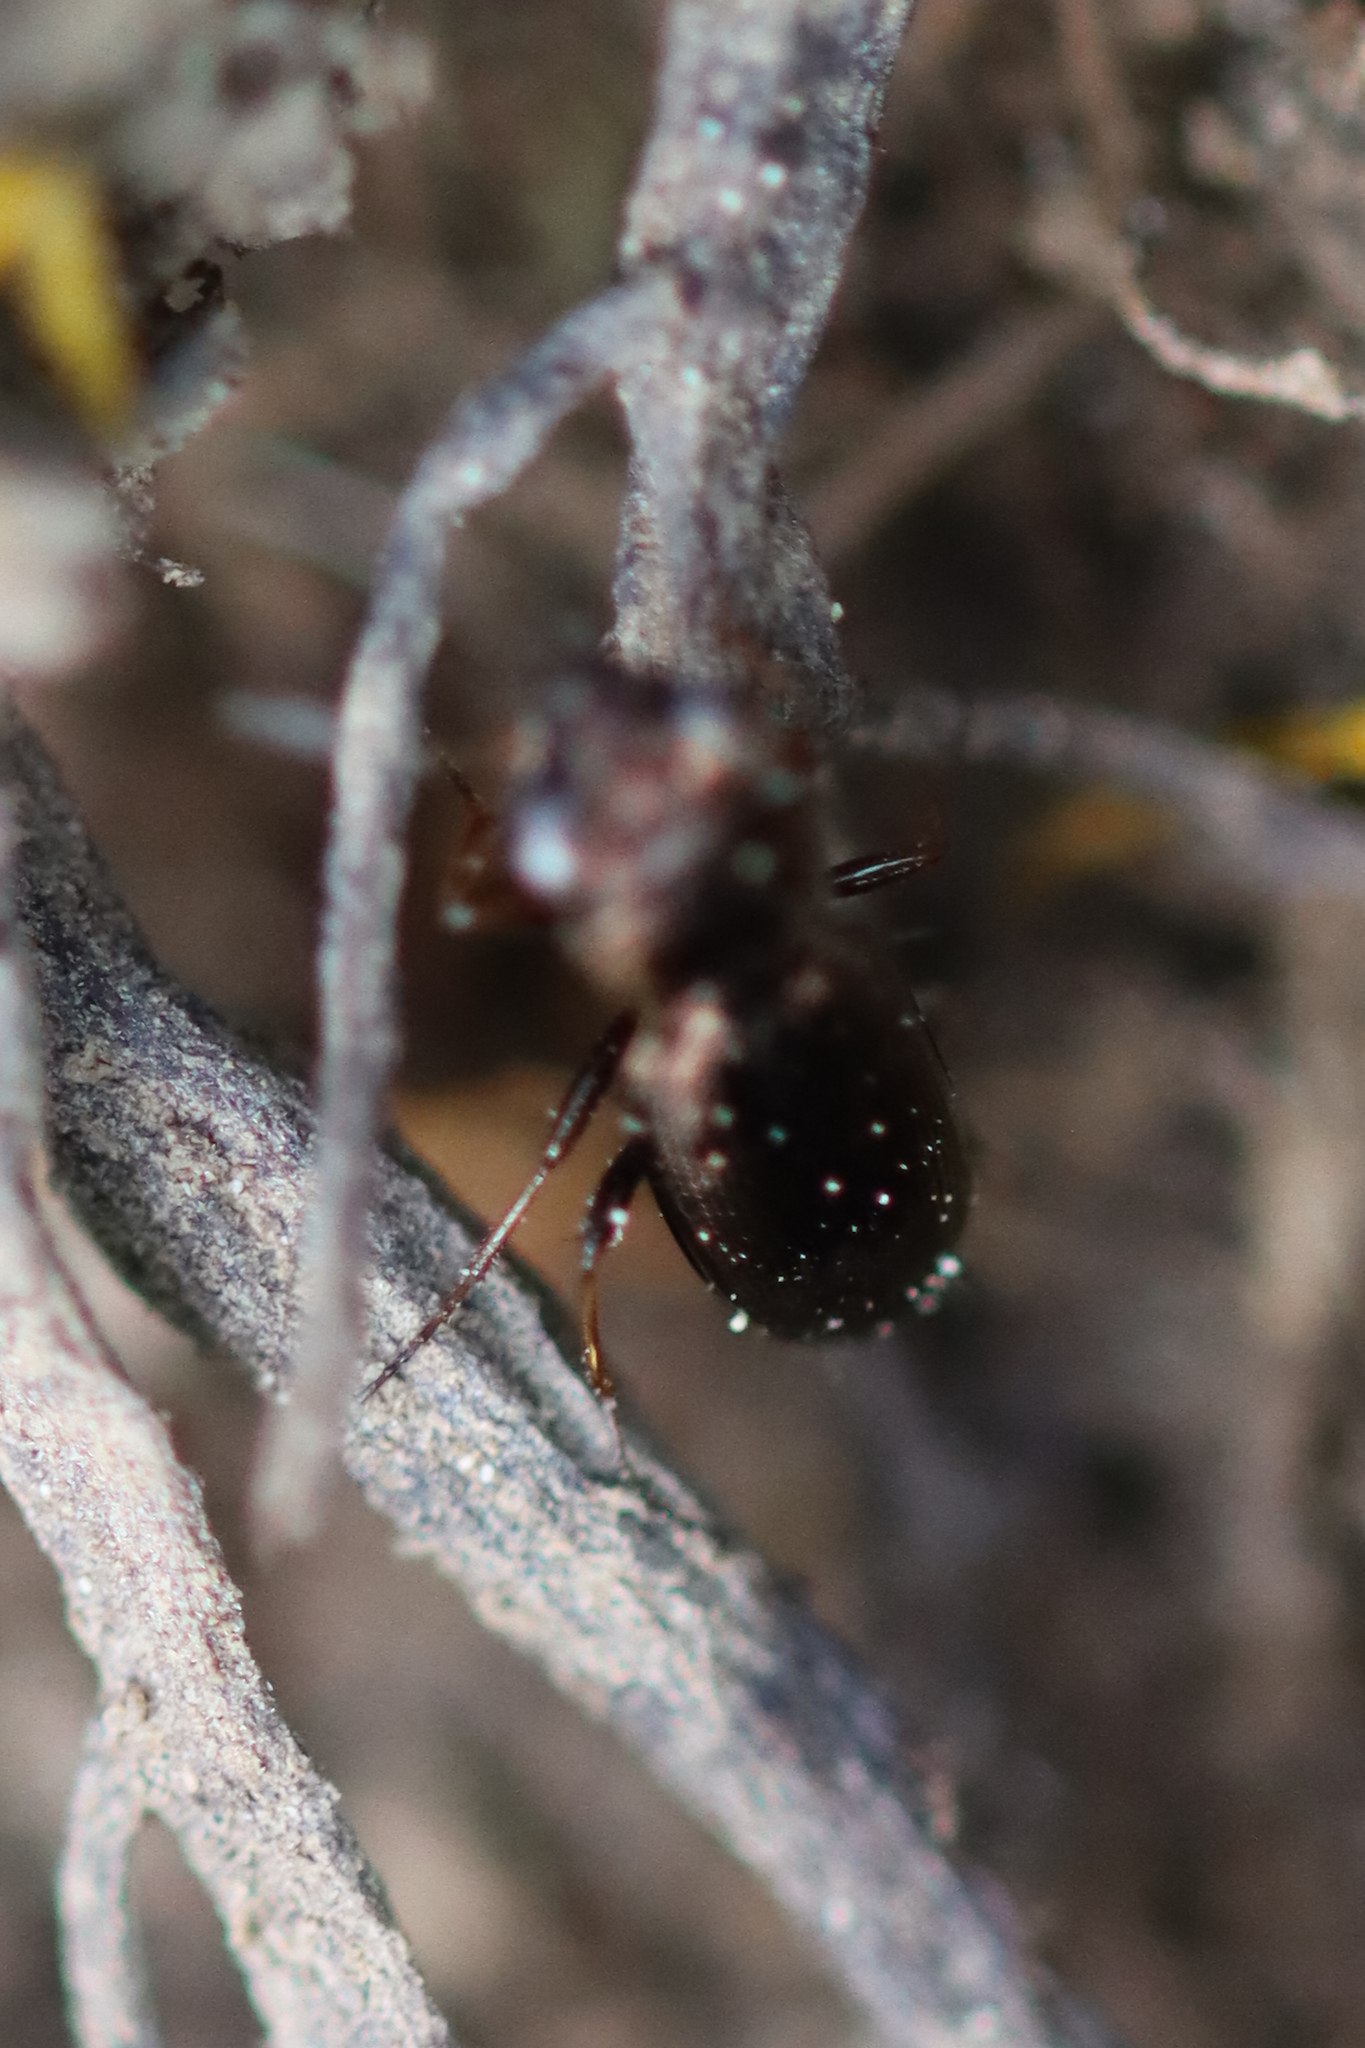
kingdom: Animalia
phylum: Arthropoda
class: Insecta
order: Coleoptera
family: Carabidae
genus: Notiophilus
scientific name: Notiophilus
